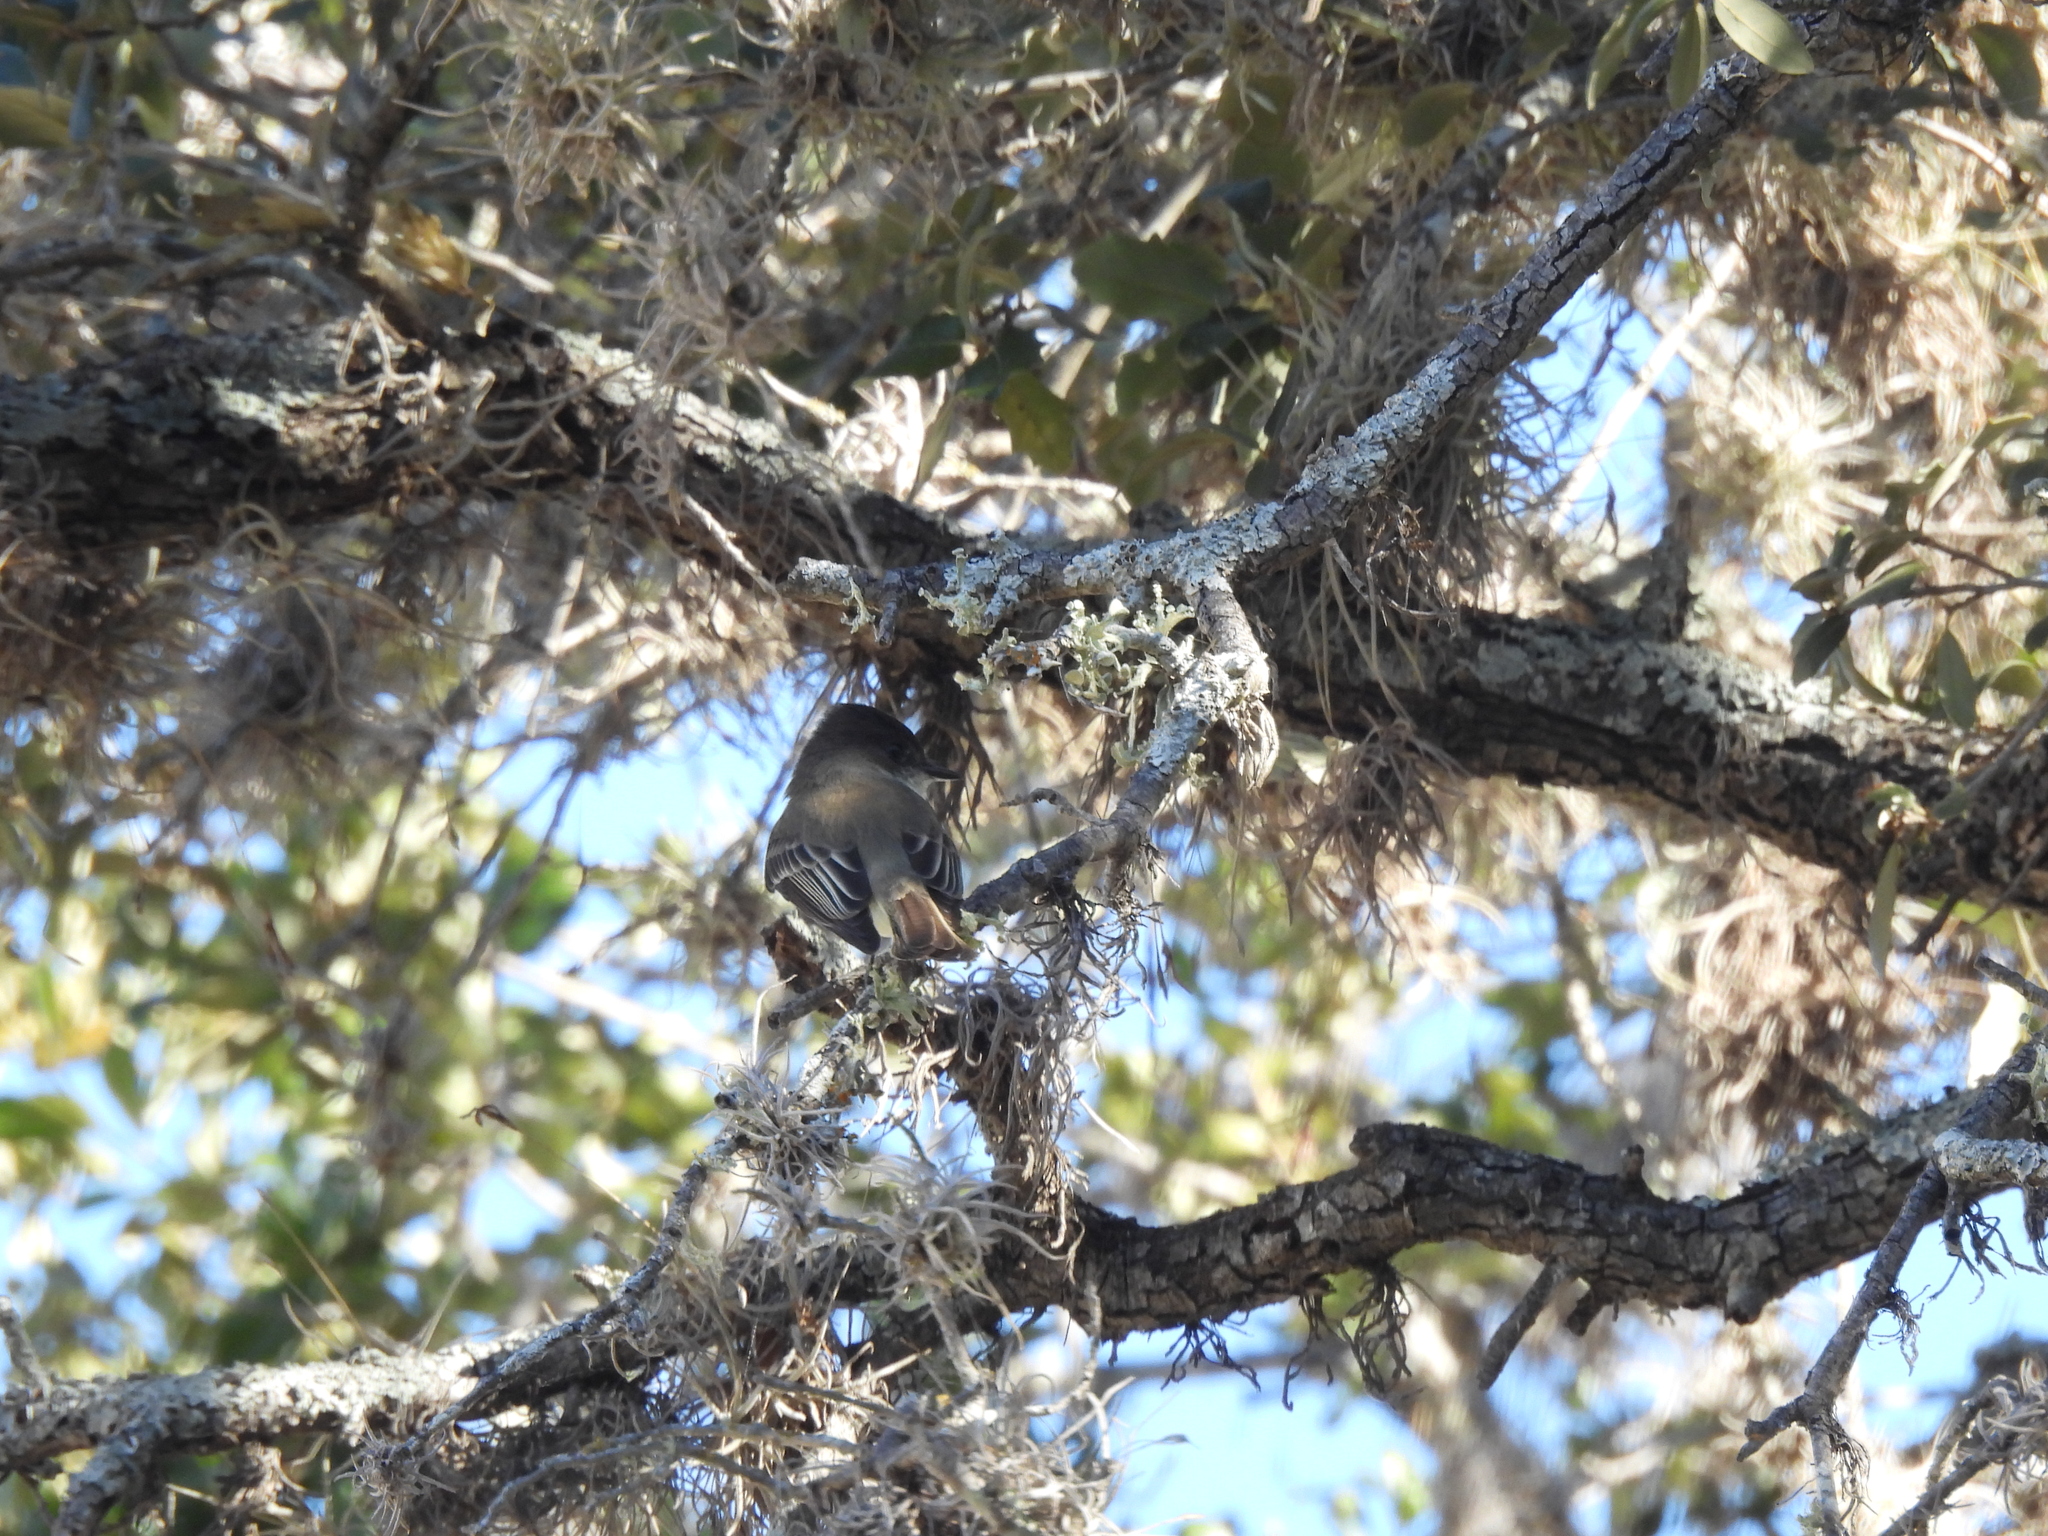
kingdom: Animalia
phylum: Chordata
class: Aves
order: Passeriformes
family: Tyrannidae
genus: Sayornis
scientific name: Sayornis phoebe
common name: Eastern phoebe
